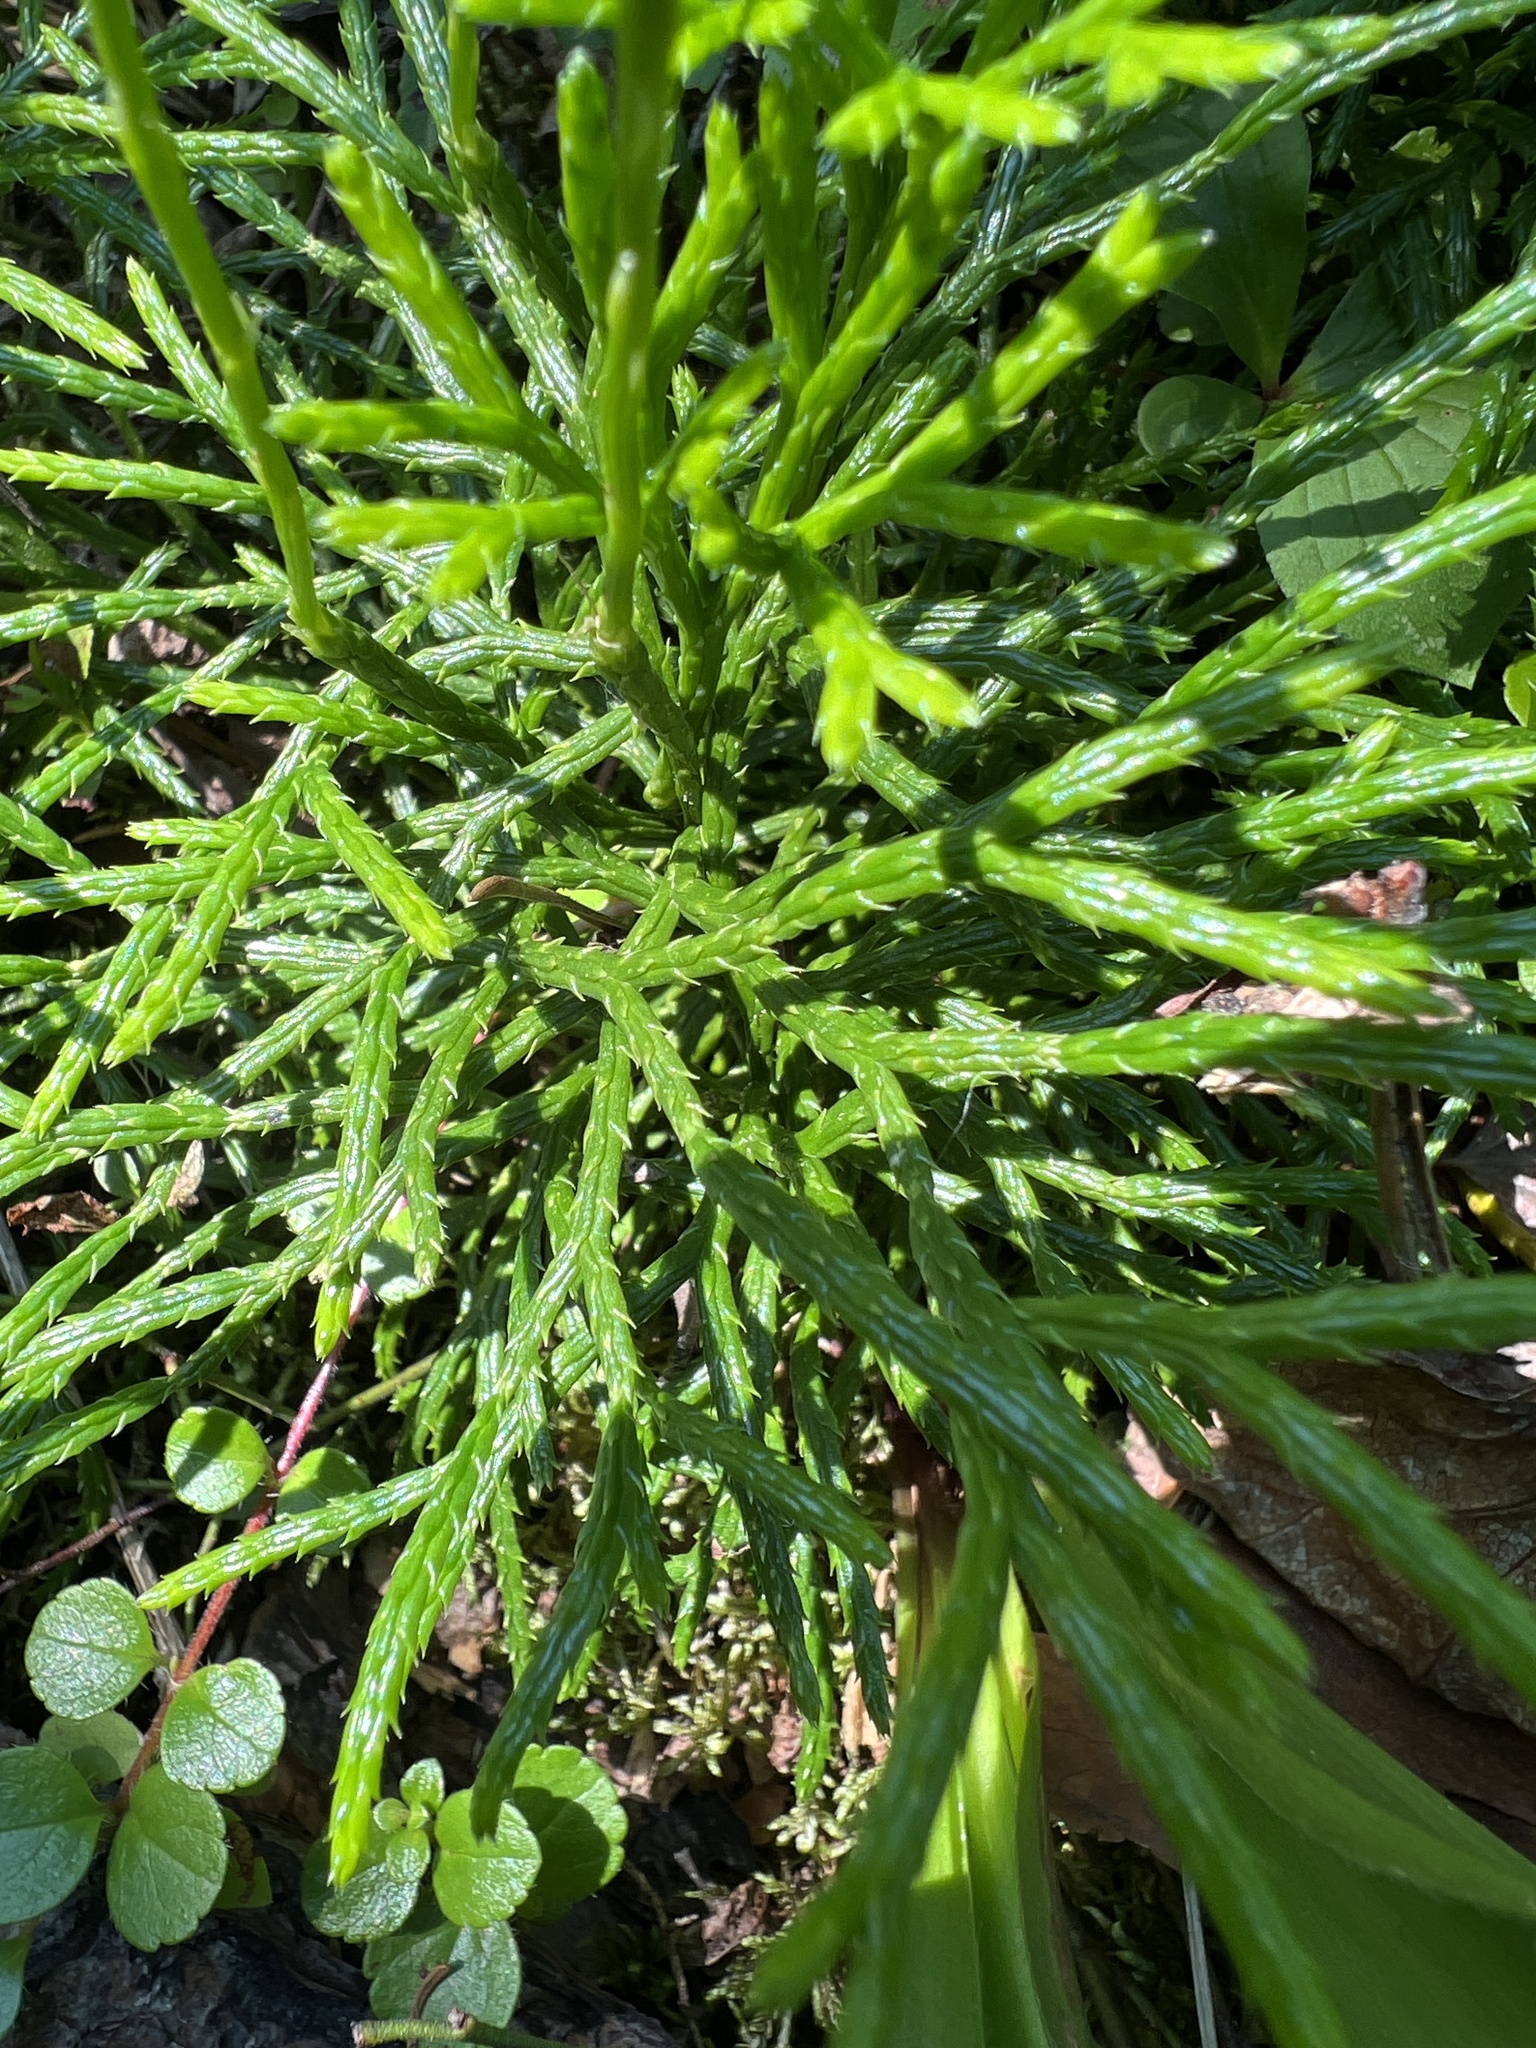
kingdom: Plantae
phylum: Tracheophyta
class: Lycopodiopsida
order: Lycopodiales
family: Lycopodiaceae
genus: Diphasiastrum
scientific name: Diphasiastrum complanatum
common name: Northern running-pine
